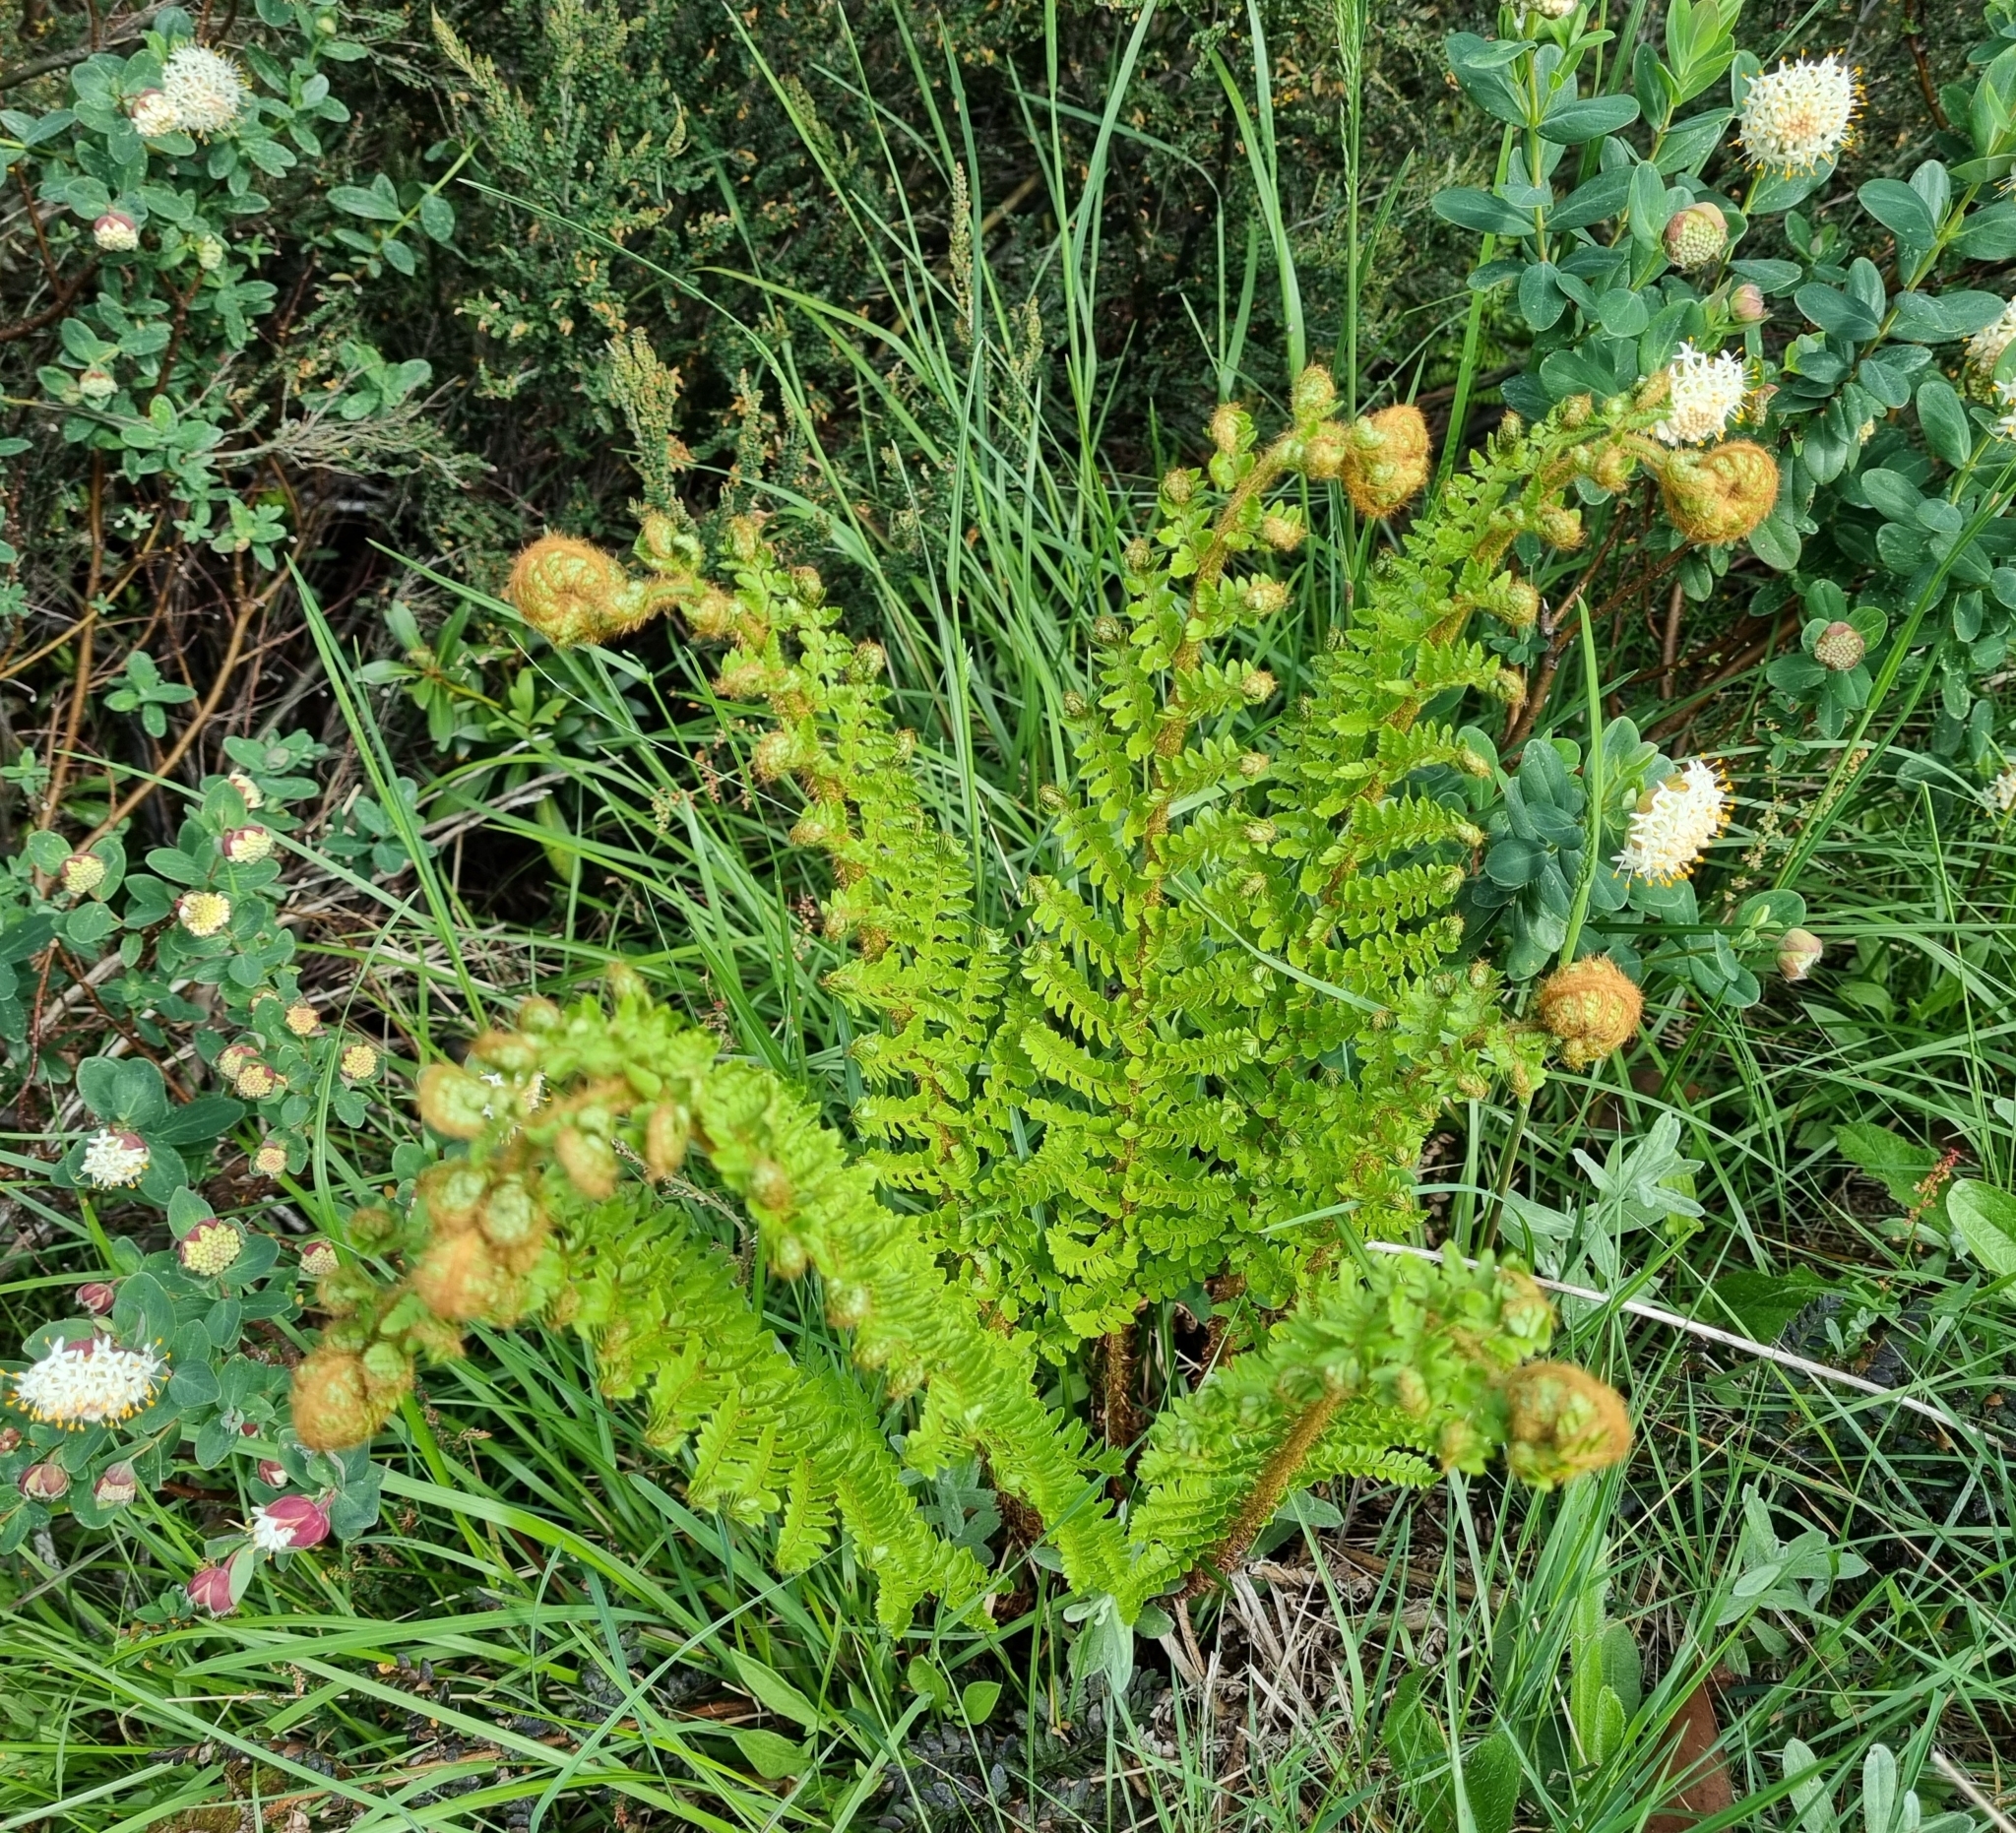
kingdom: Plantae
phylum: Tracheophyta
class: Polypodiopsida
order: Polypodiales
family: Dryopteridaceae
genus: Polystichum
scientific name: Polystichum proliferum
